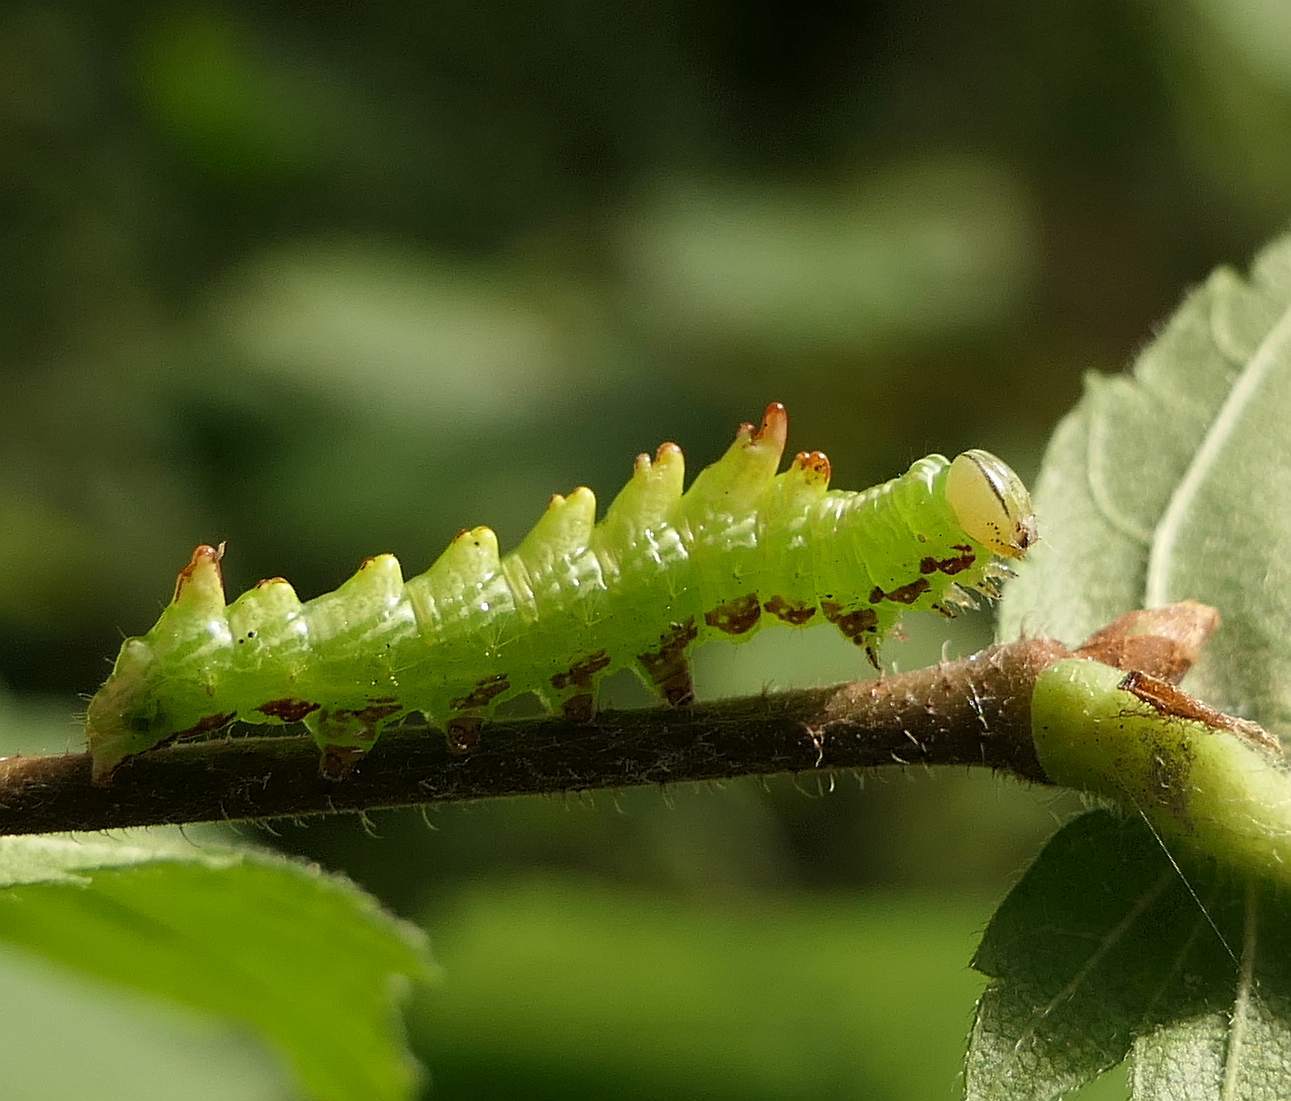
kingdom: Animalia
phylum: Arthropoda
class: Insecta
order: Lepidoptera
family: Notodontidae
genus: Nerice
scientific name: Nerice bidentata
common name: Double-toothed prominent
